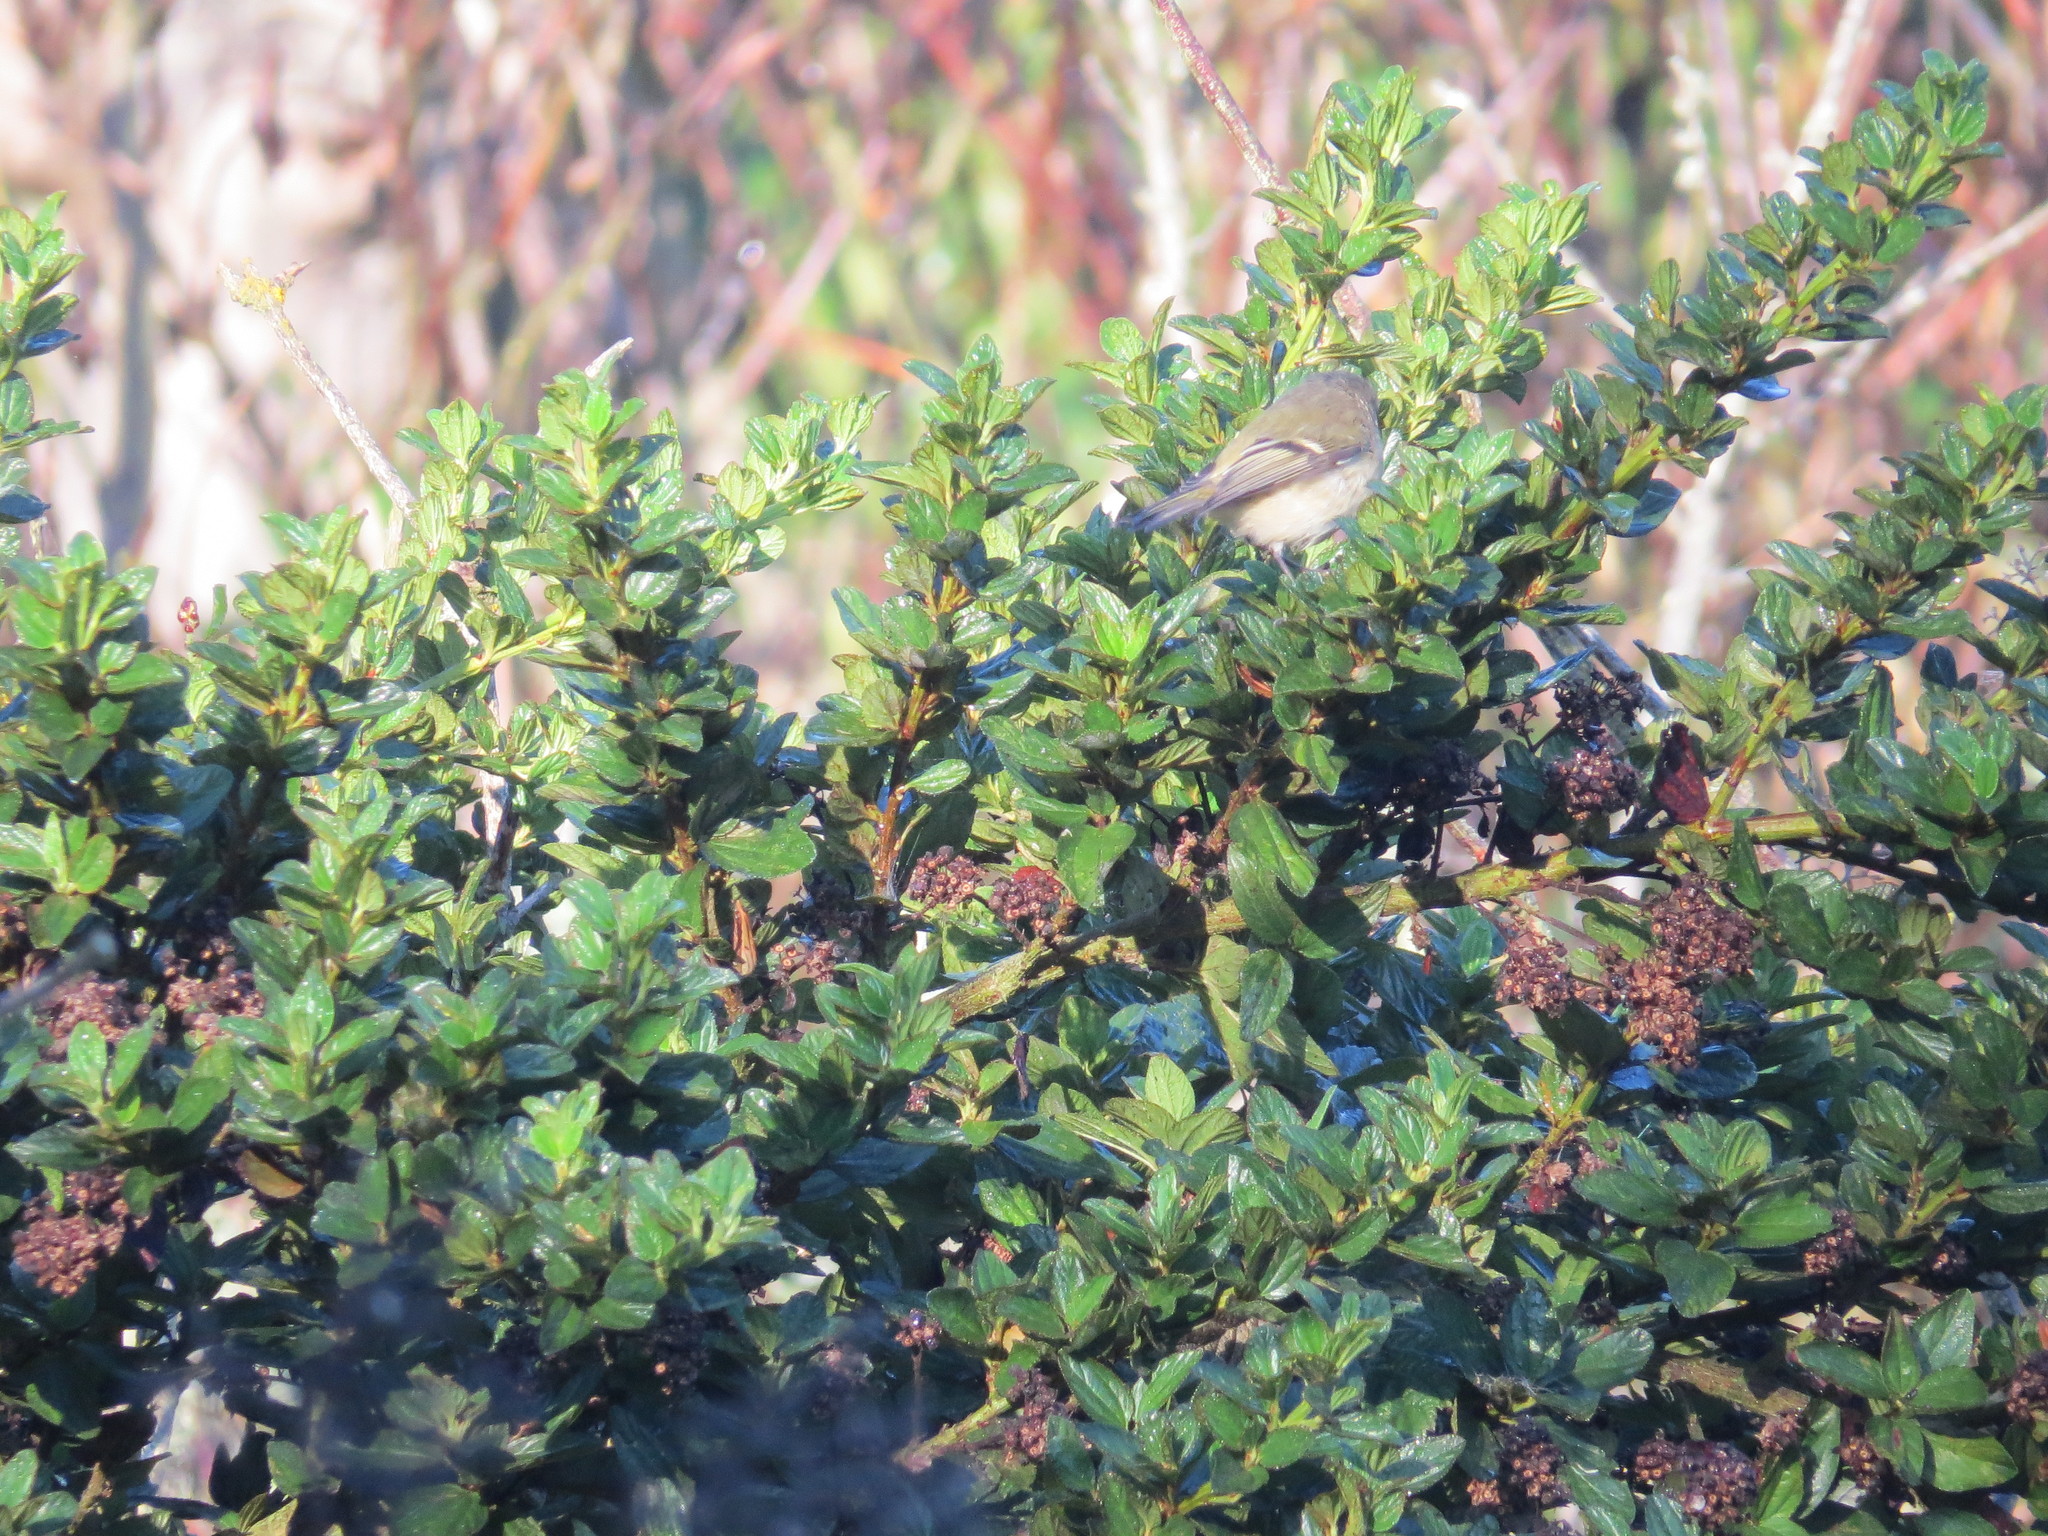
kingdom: Animalia
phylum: Chordata
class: Aves
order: Passeriformes
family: Regulidae
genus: Regulus
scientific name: Regulus calendula
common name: Ruby-crowned kinglet
